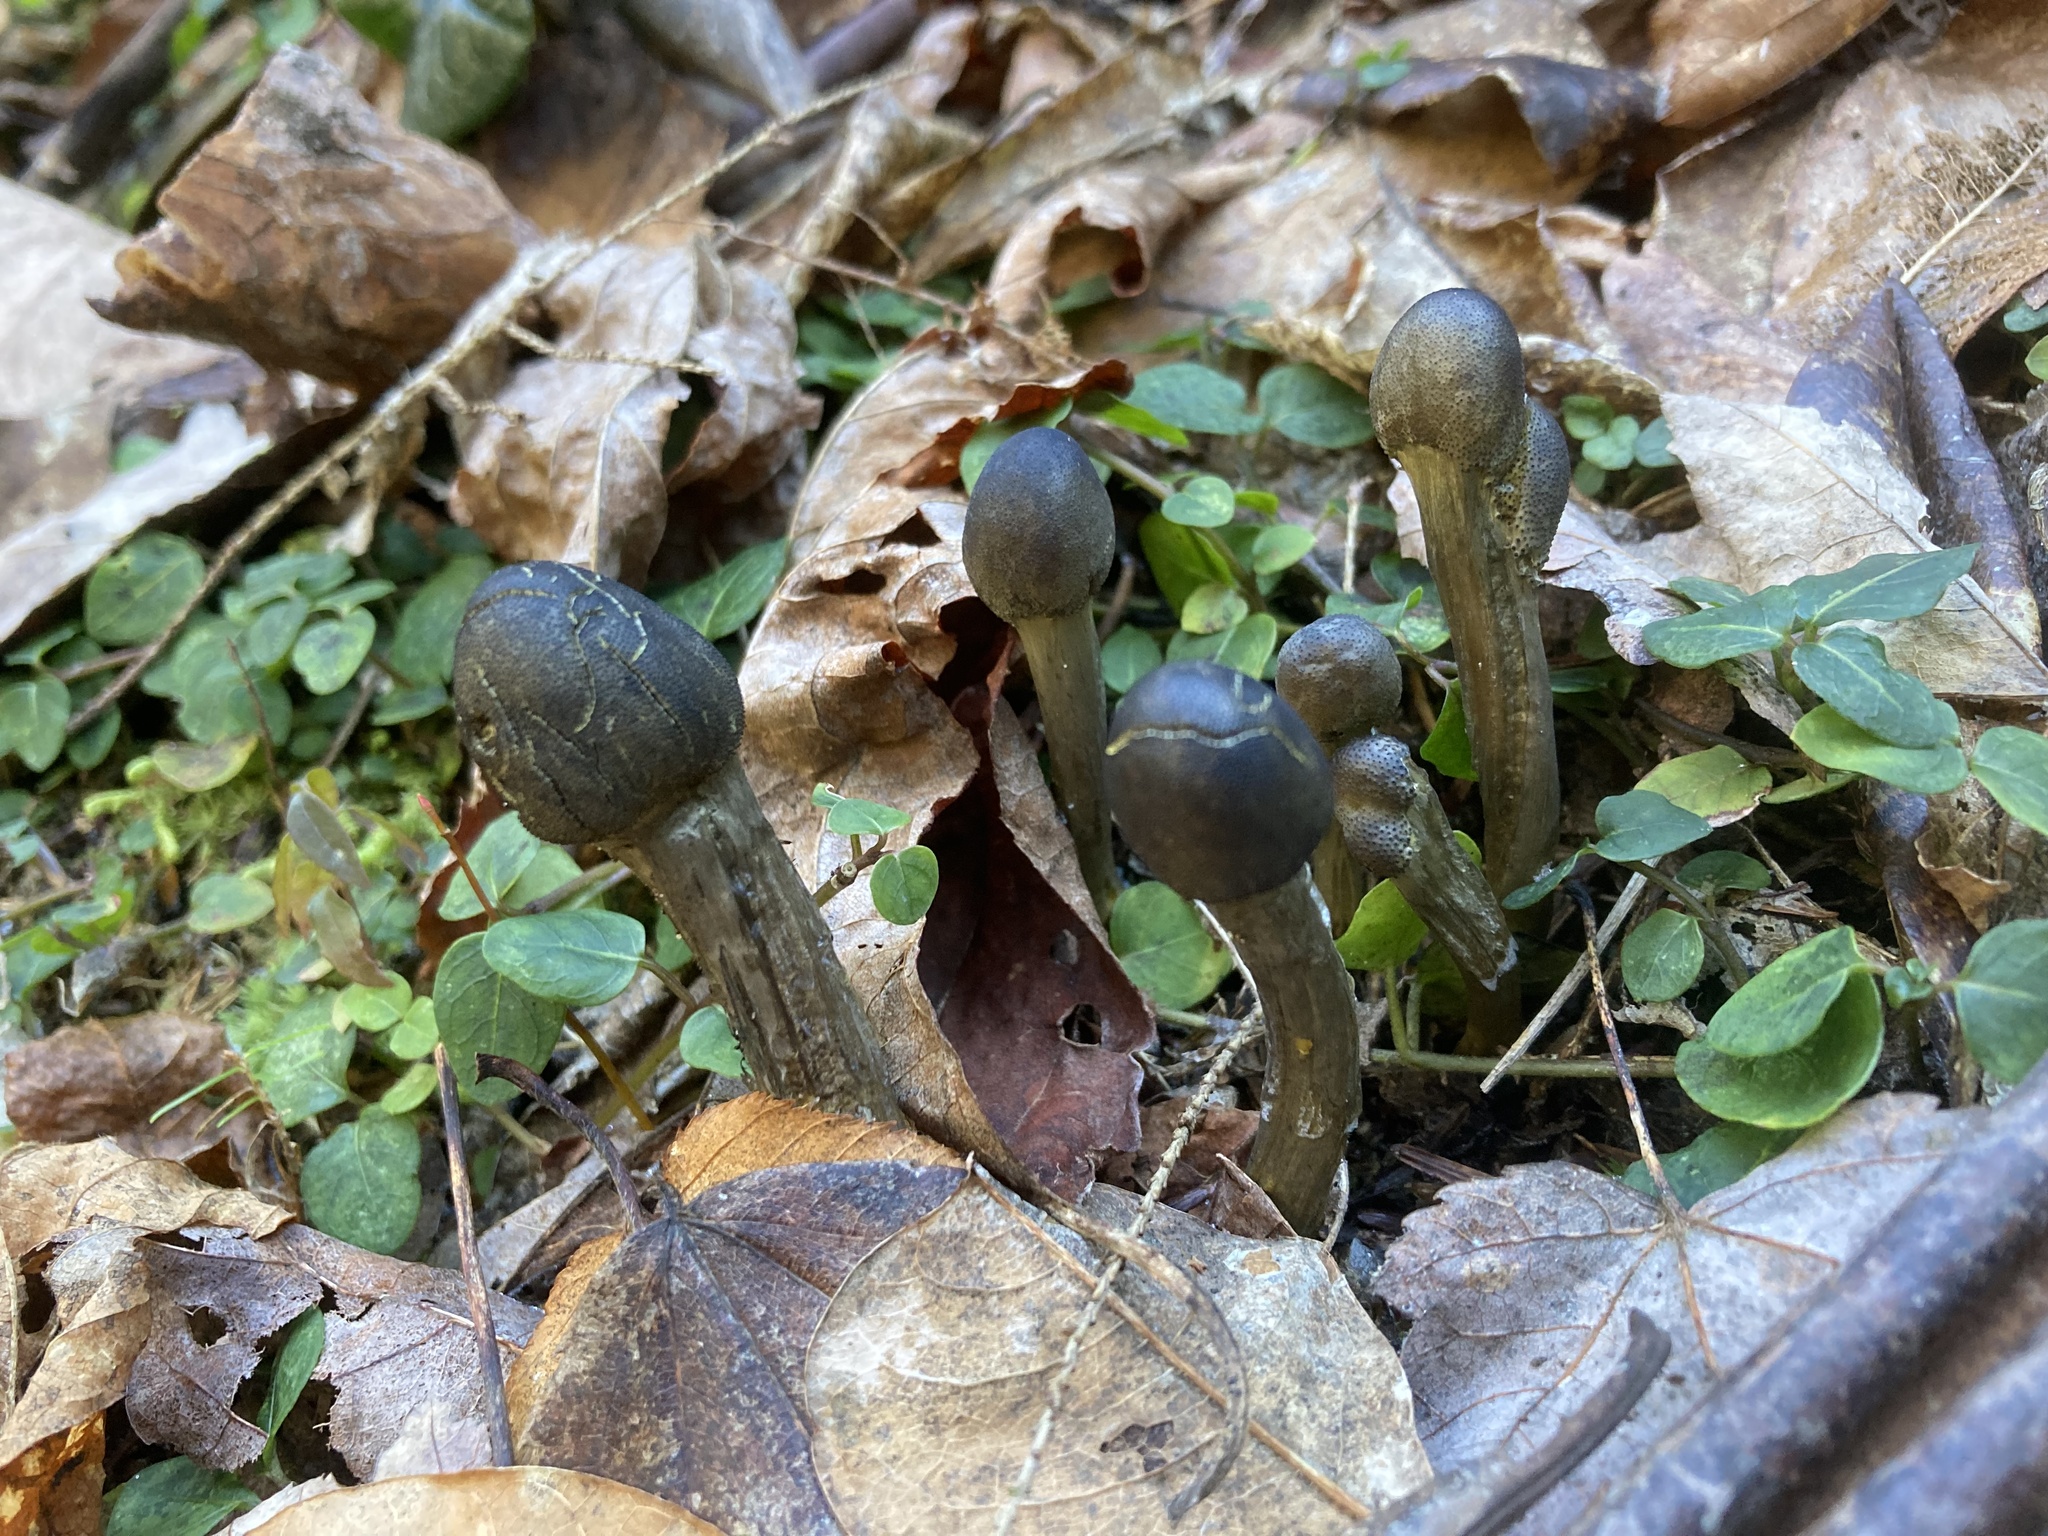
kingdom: Fungi
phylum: Ascomycota
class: Sordariomycetes
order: Hypocreales
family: Ophiocordycipitaceae
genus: Tolypocladium
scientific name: Tolypocladium capitatum
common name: Capitate truffleclub
